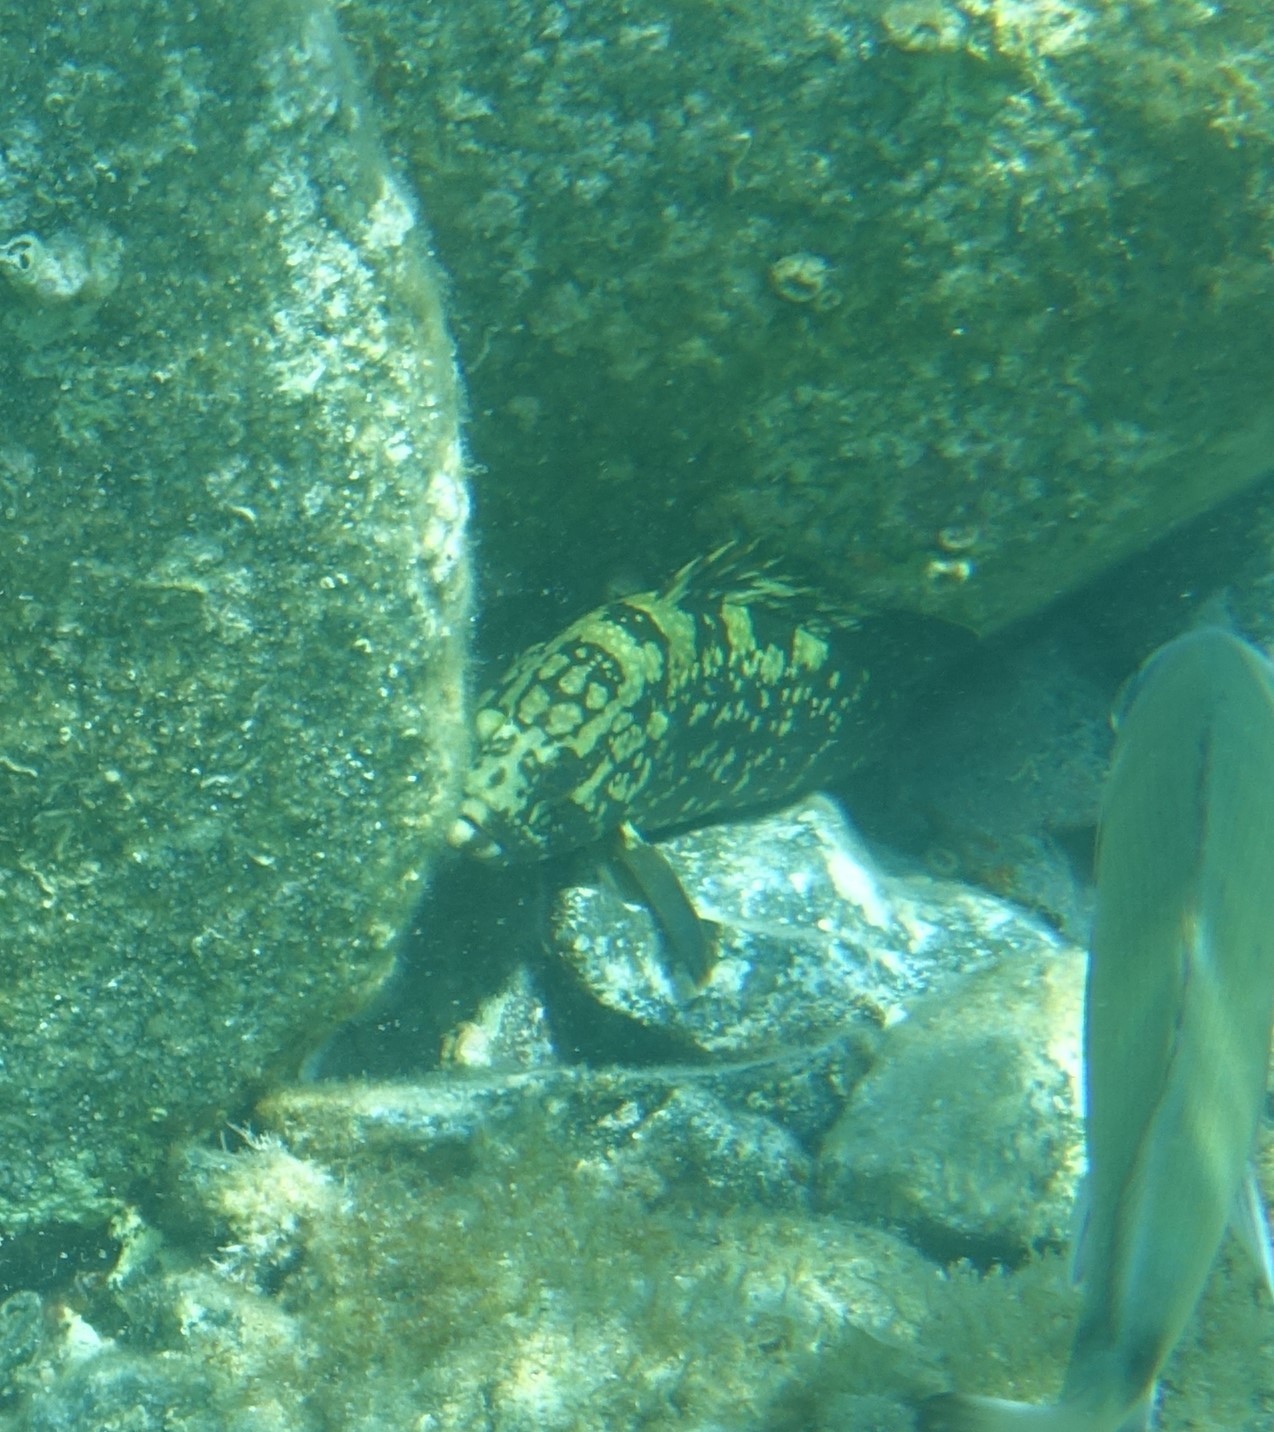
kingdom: Animalia
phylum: Chordata
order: Perciformes
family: Serranidae
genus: Epinephelus
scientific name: Epinephelus marginatus
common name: Dusky grouper
